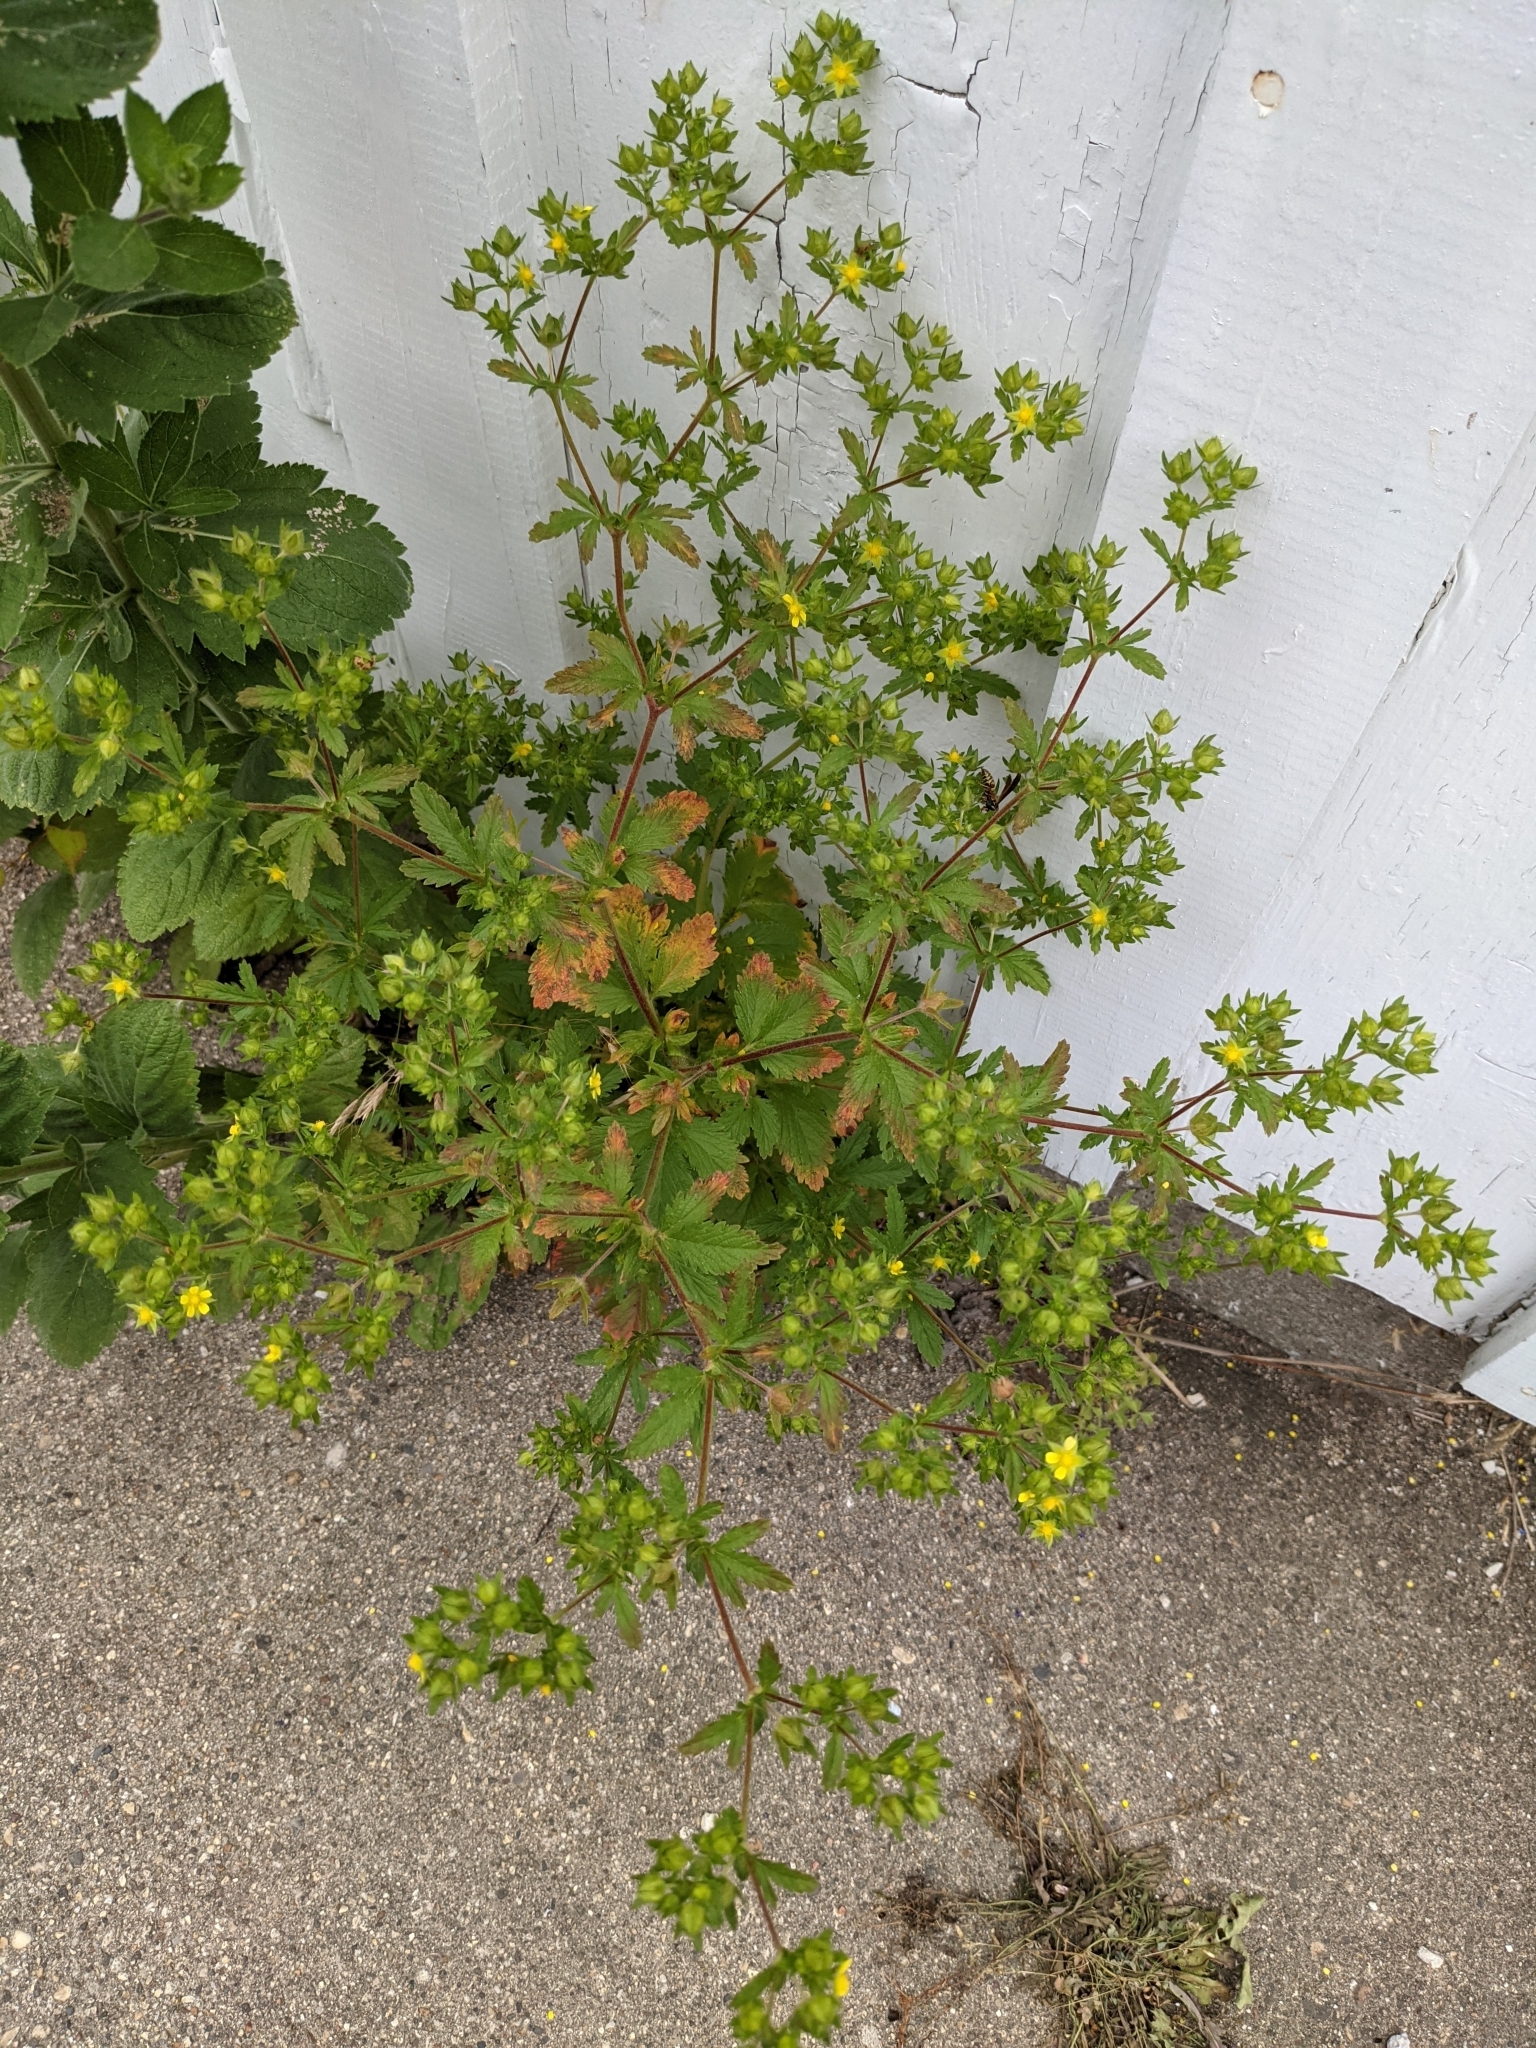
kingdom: Plantae
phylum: Tracheophyta
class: Magnoliopsida
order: Rosales
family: Rosaceae
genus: Potentilla
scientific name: Potentilla norvegica
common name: Ternate-leaved cinquefoil
